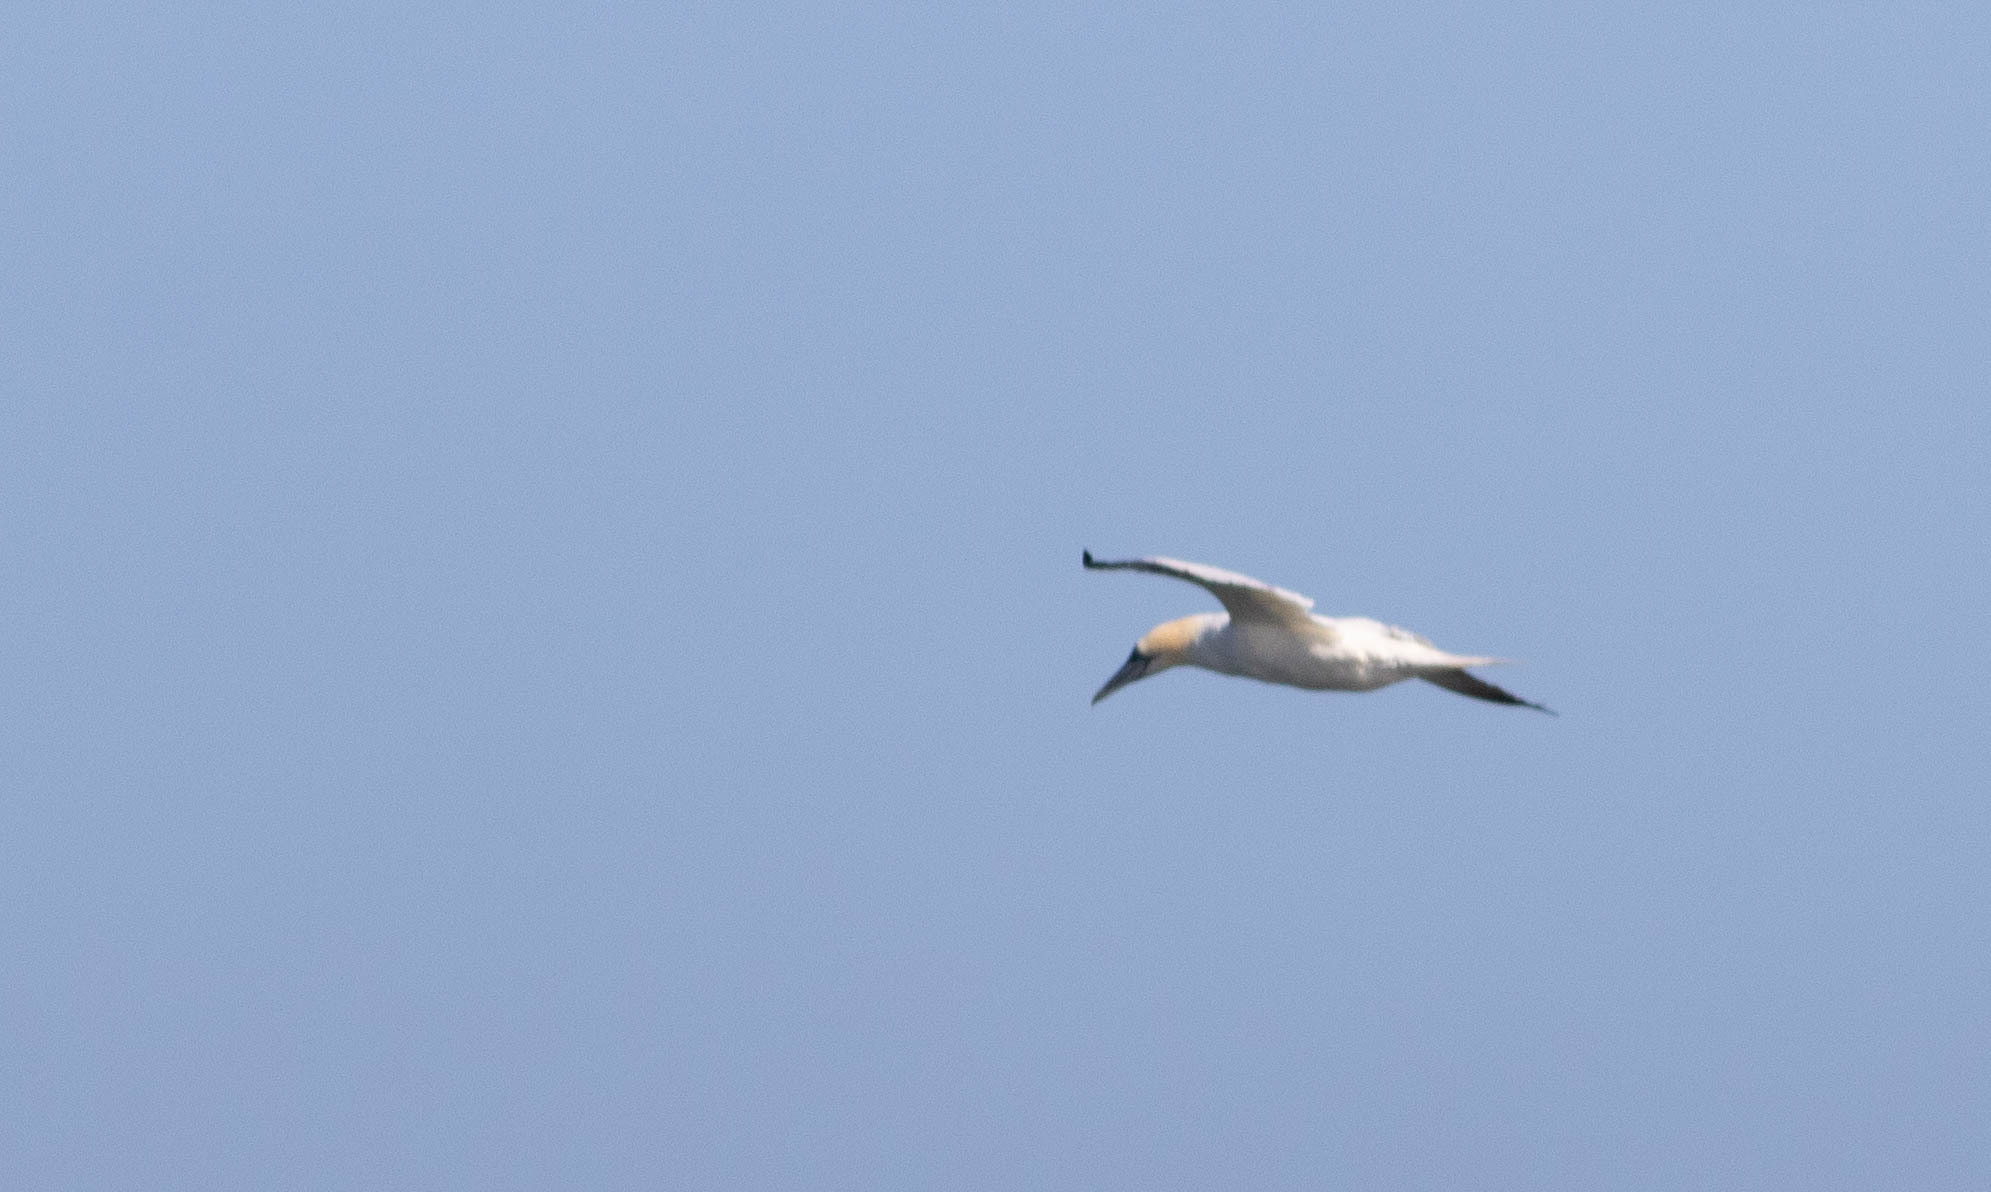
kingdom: Animalia
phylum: Chordata
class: Aves
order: Suliformes
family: Sulidae
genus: Morus
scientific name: Morus bassanus
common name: Northern gannet
